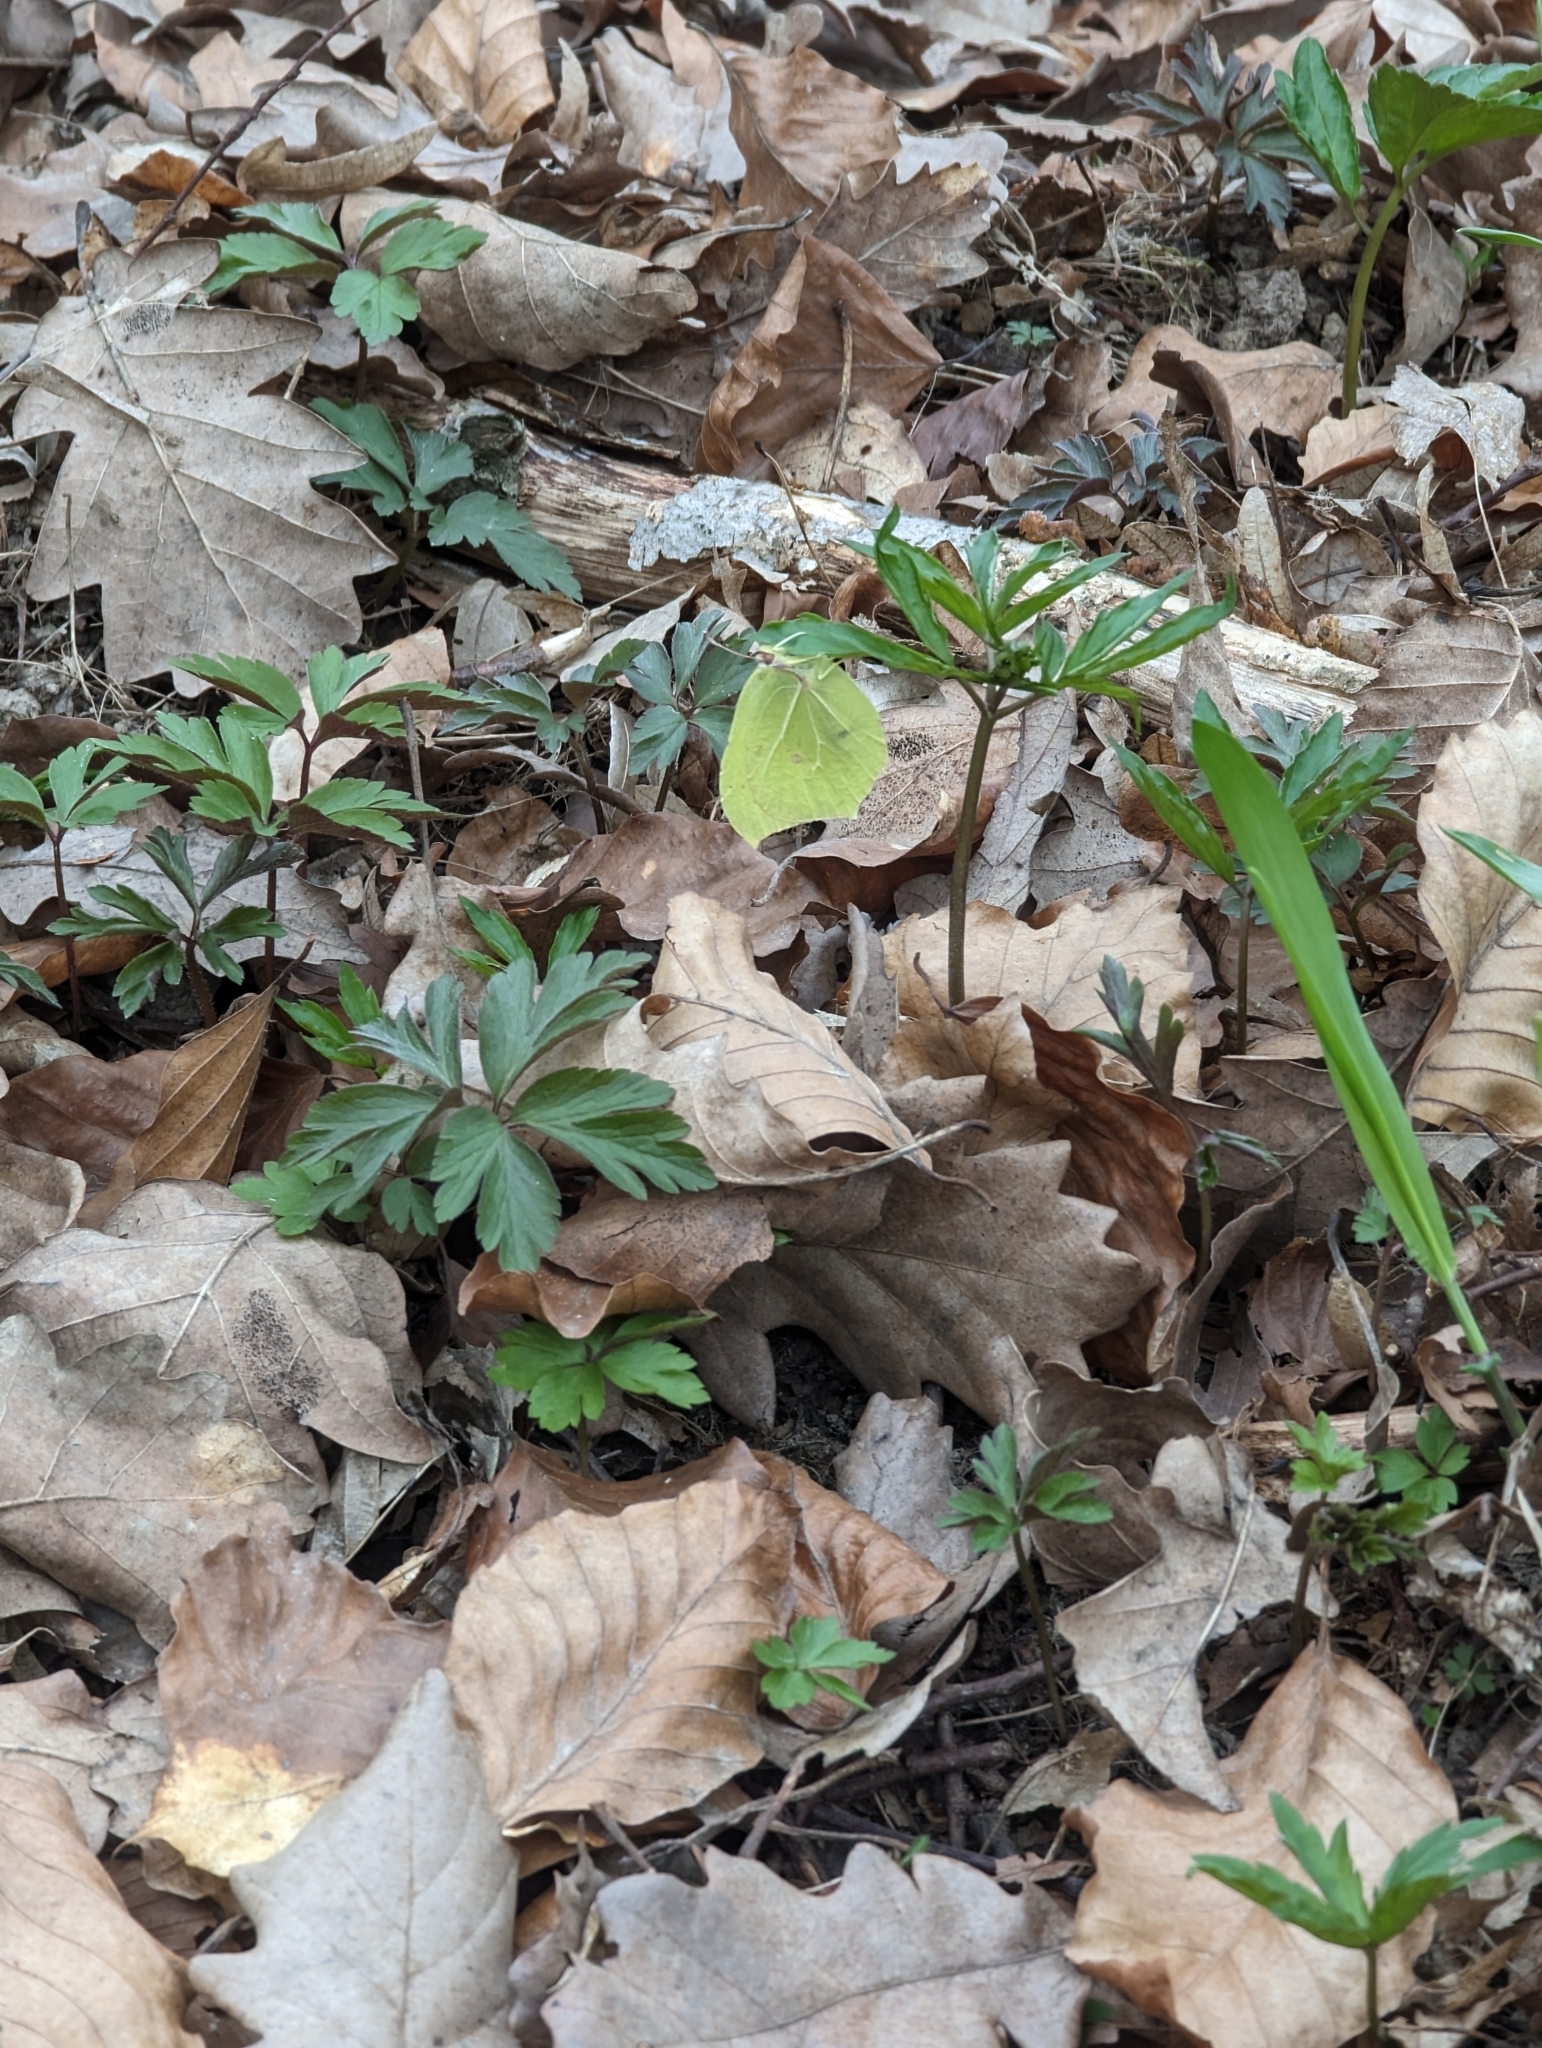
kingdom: Animalia
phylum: Arthropoda
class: Insecta
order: Lepidoptera
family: Pieridae
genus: Gonepteryx
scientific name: Gonepteryx rhamni
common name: Brimstone
